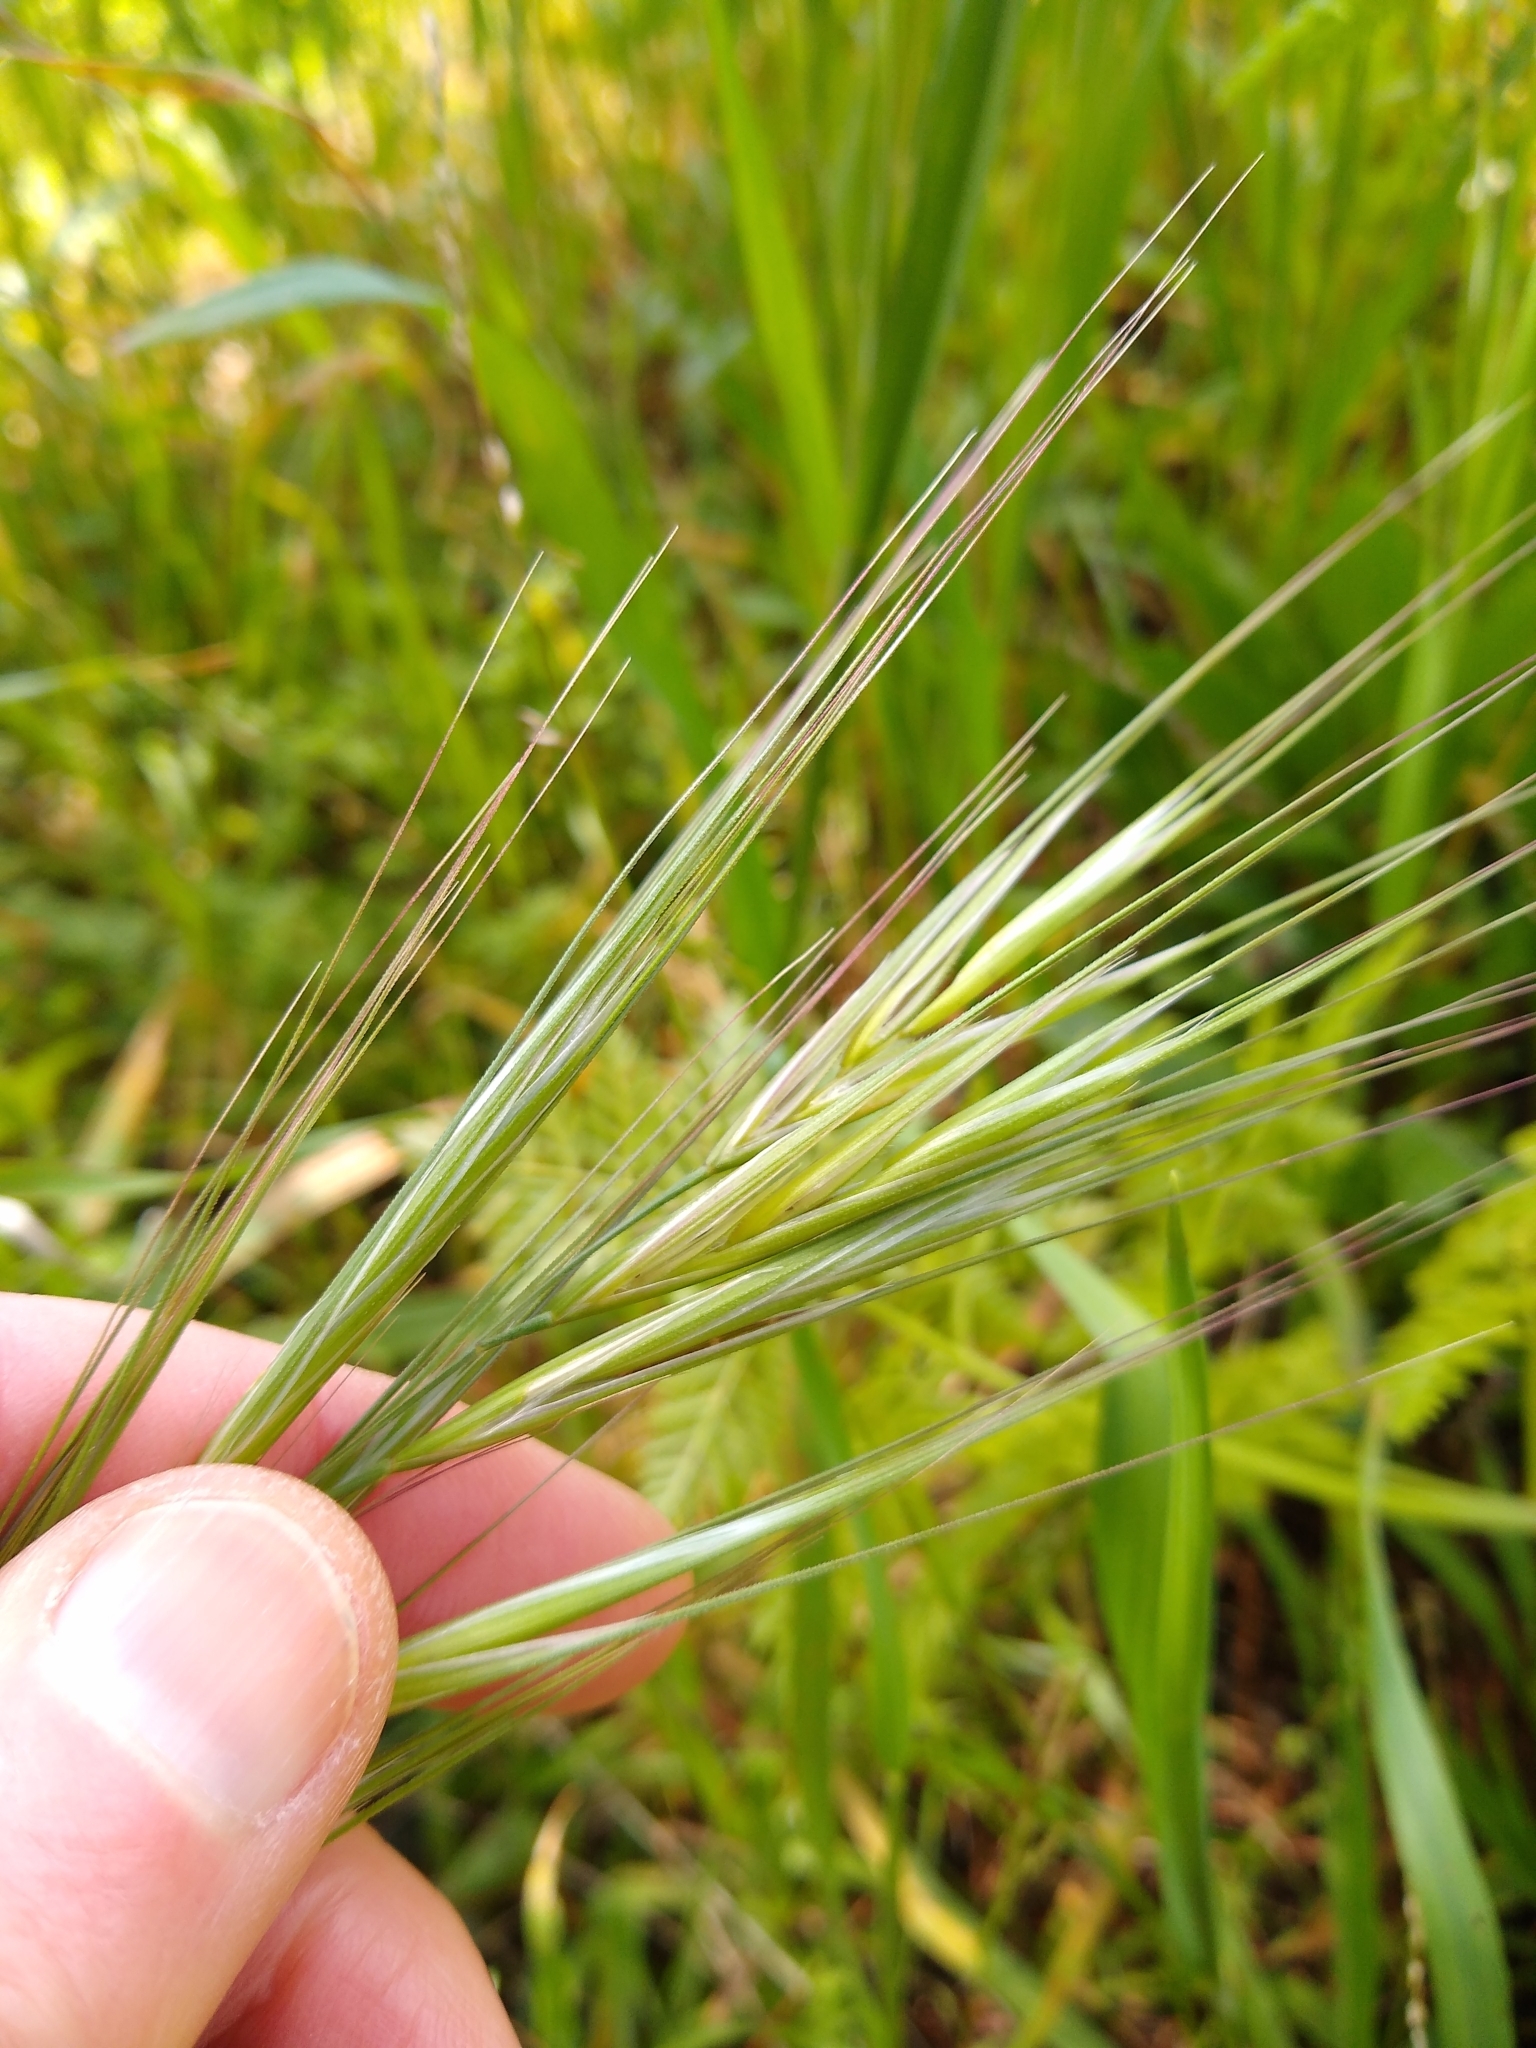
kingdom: Plantae
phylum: Tracheophyta
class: Liliopsida
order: Poales
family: Poaceae
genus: Bromus
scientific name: Bromus diandrus
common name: Ripgut brome
